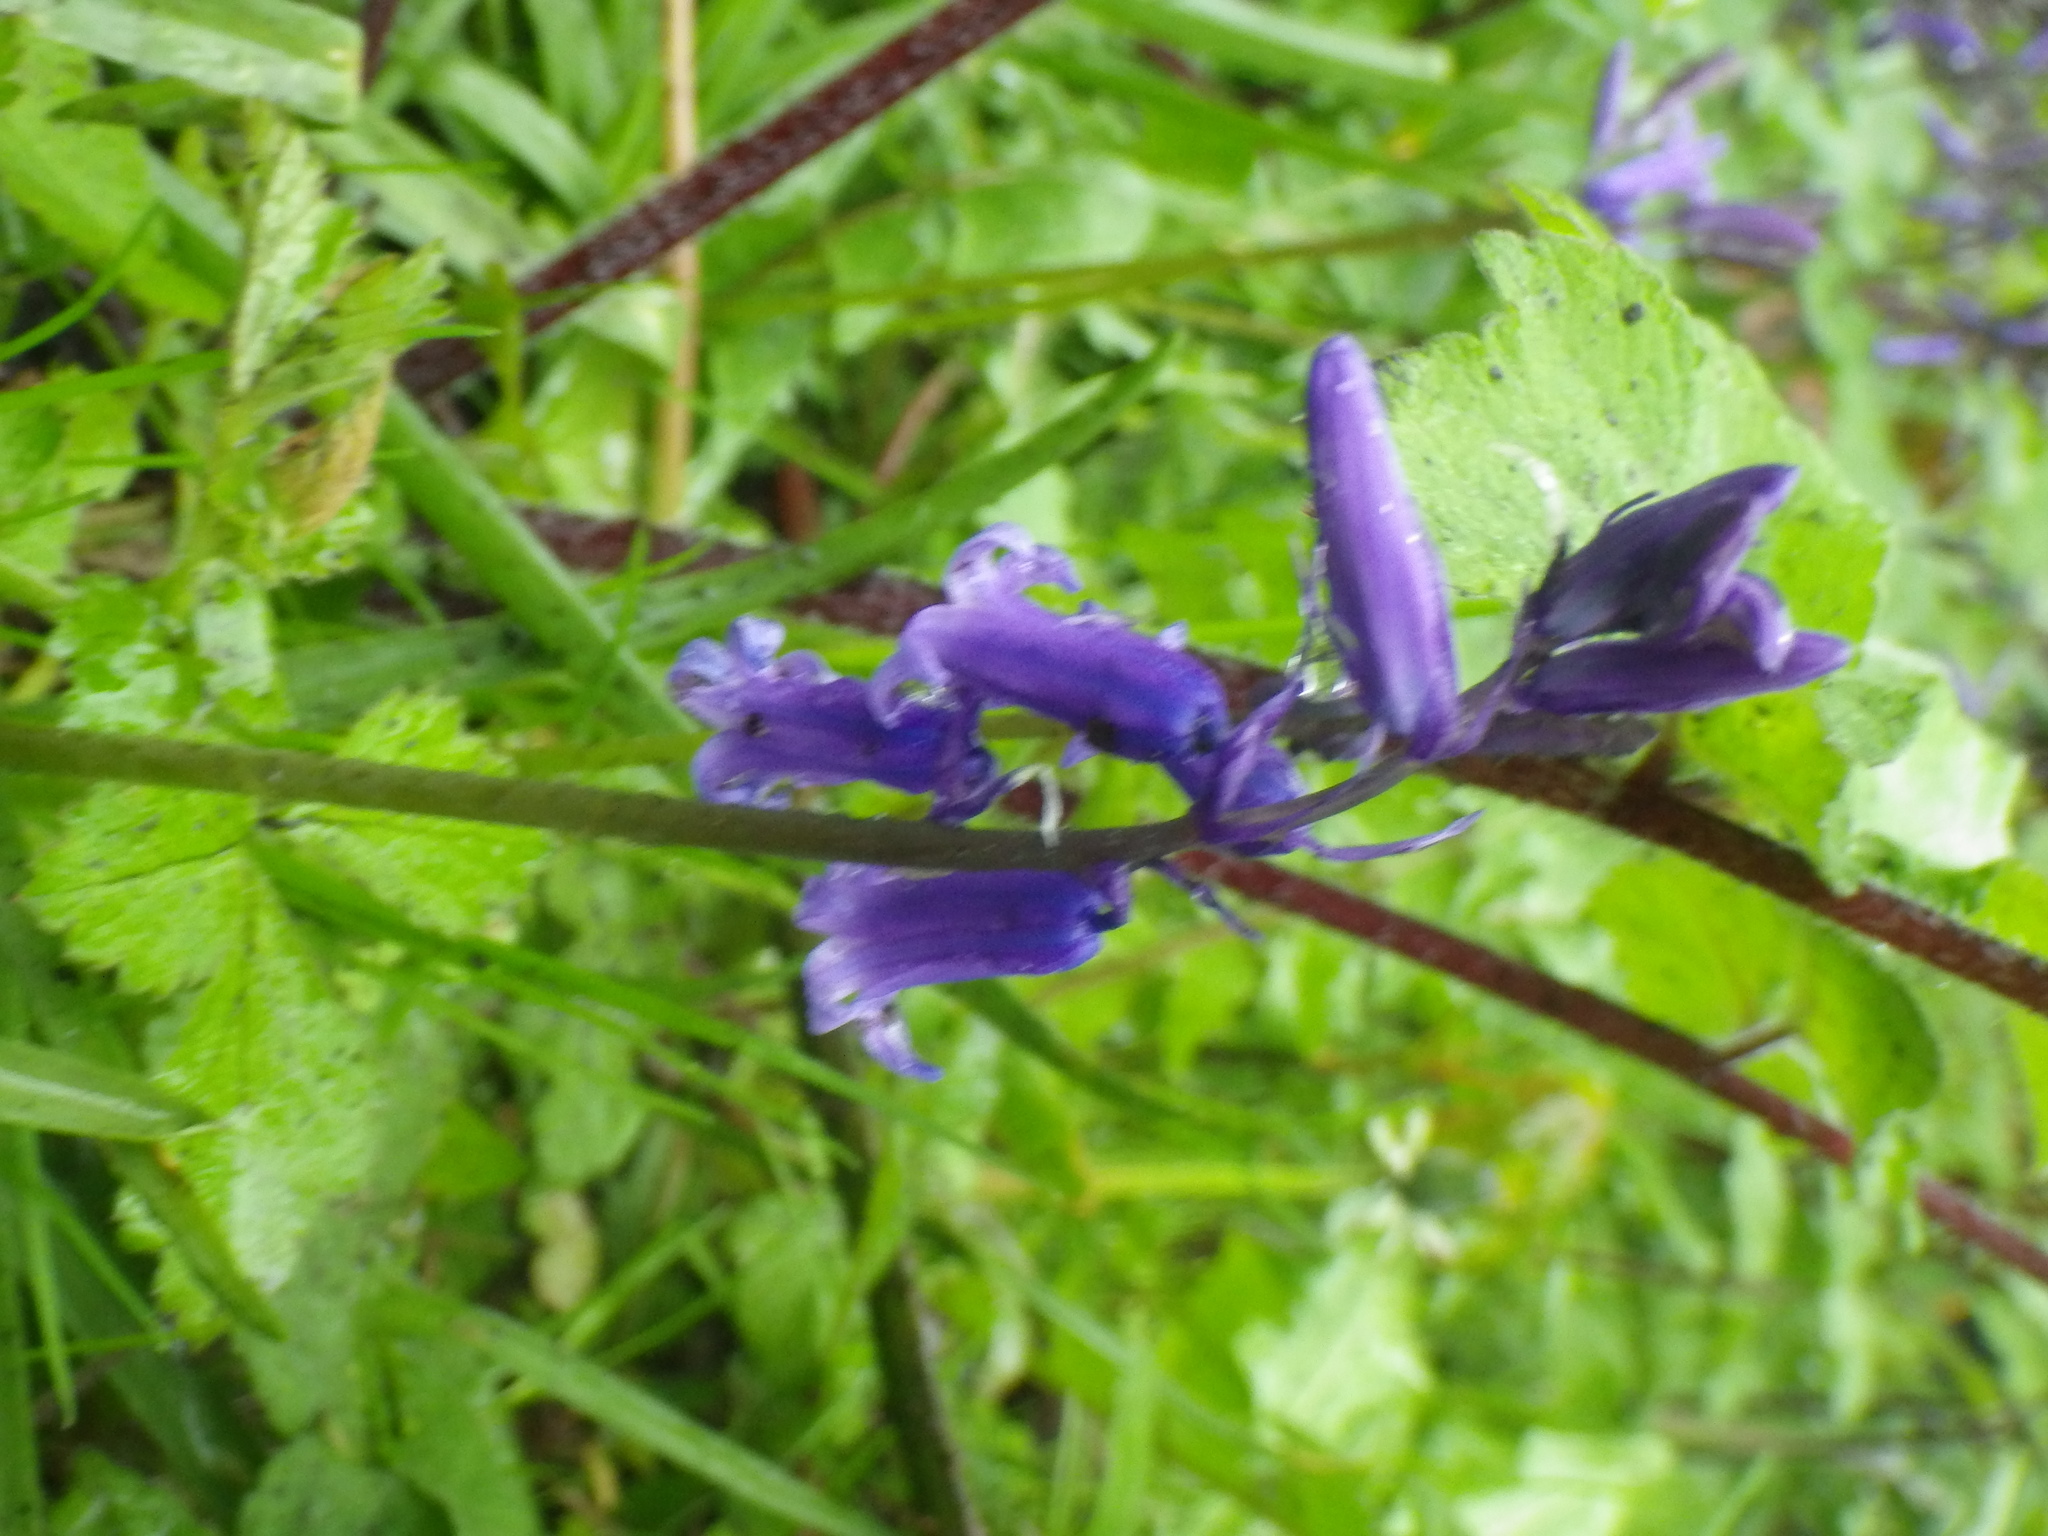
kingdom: Plantae
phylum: Tracheophyta
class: Liliopsida
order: Asparagales
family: Asparagaceae
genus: Hyacinthoides
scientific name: Hyacinthoides non-scripta
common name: Bluebell
